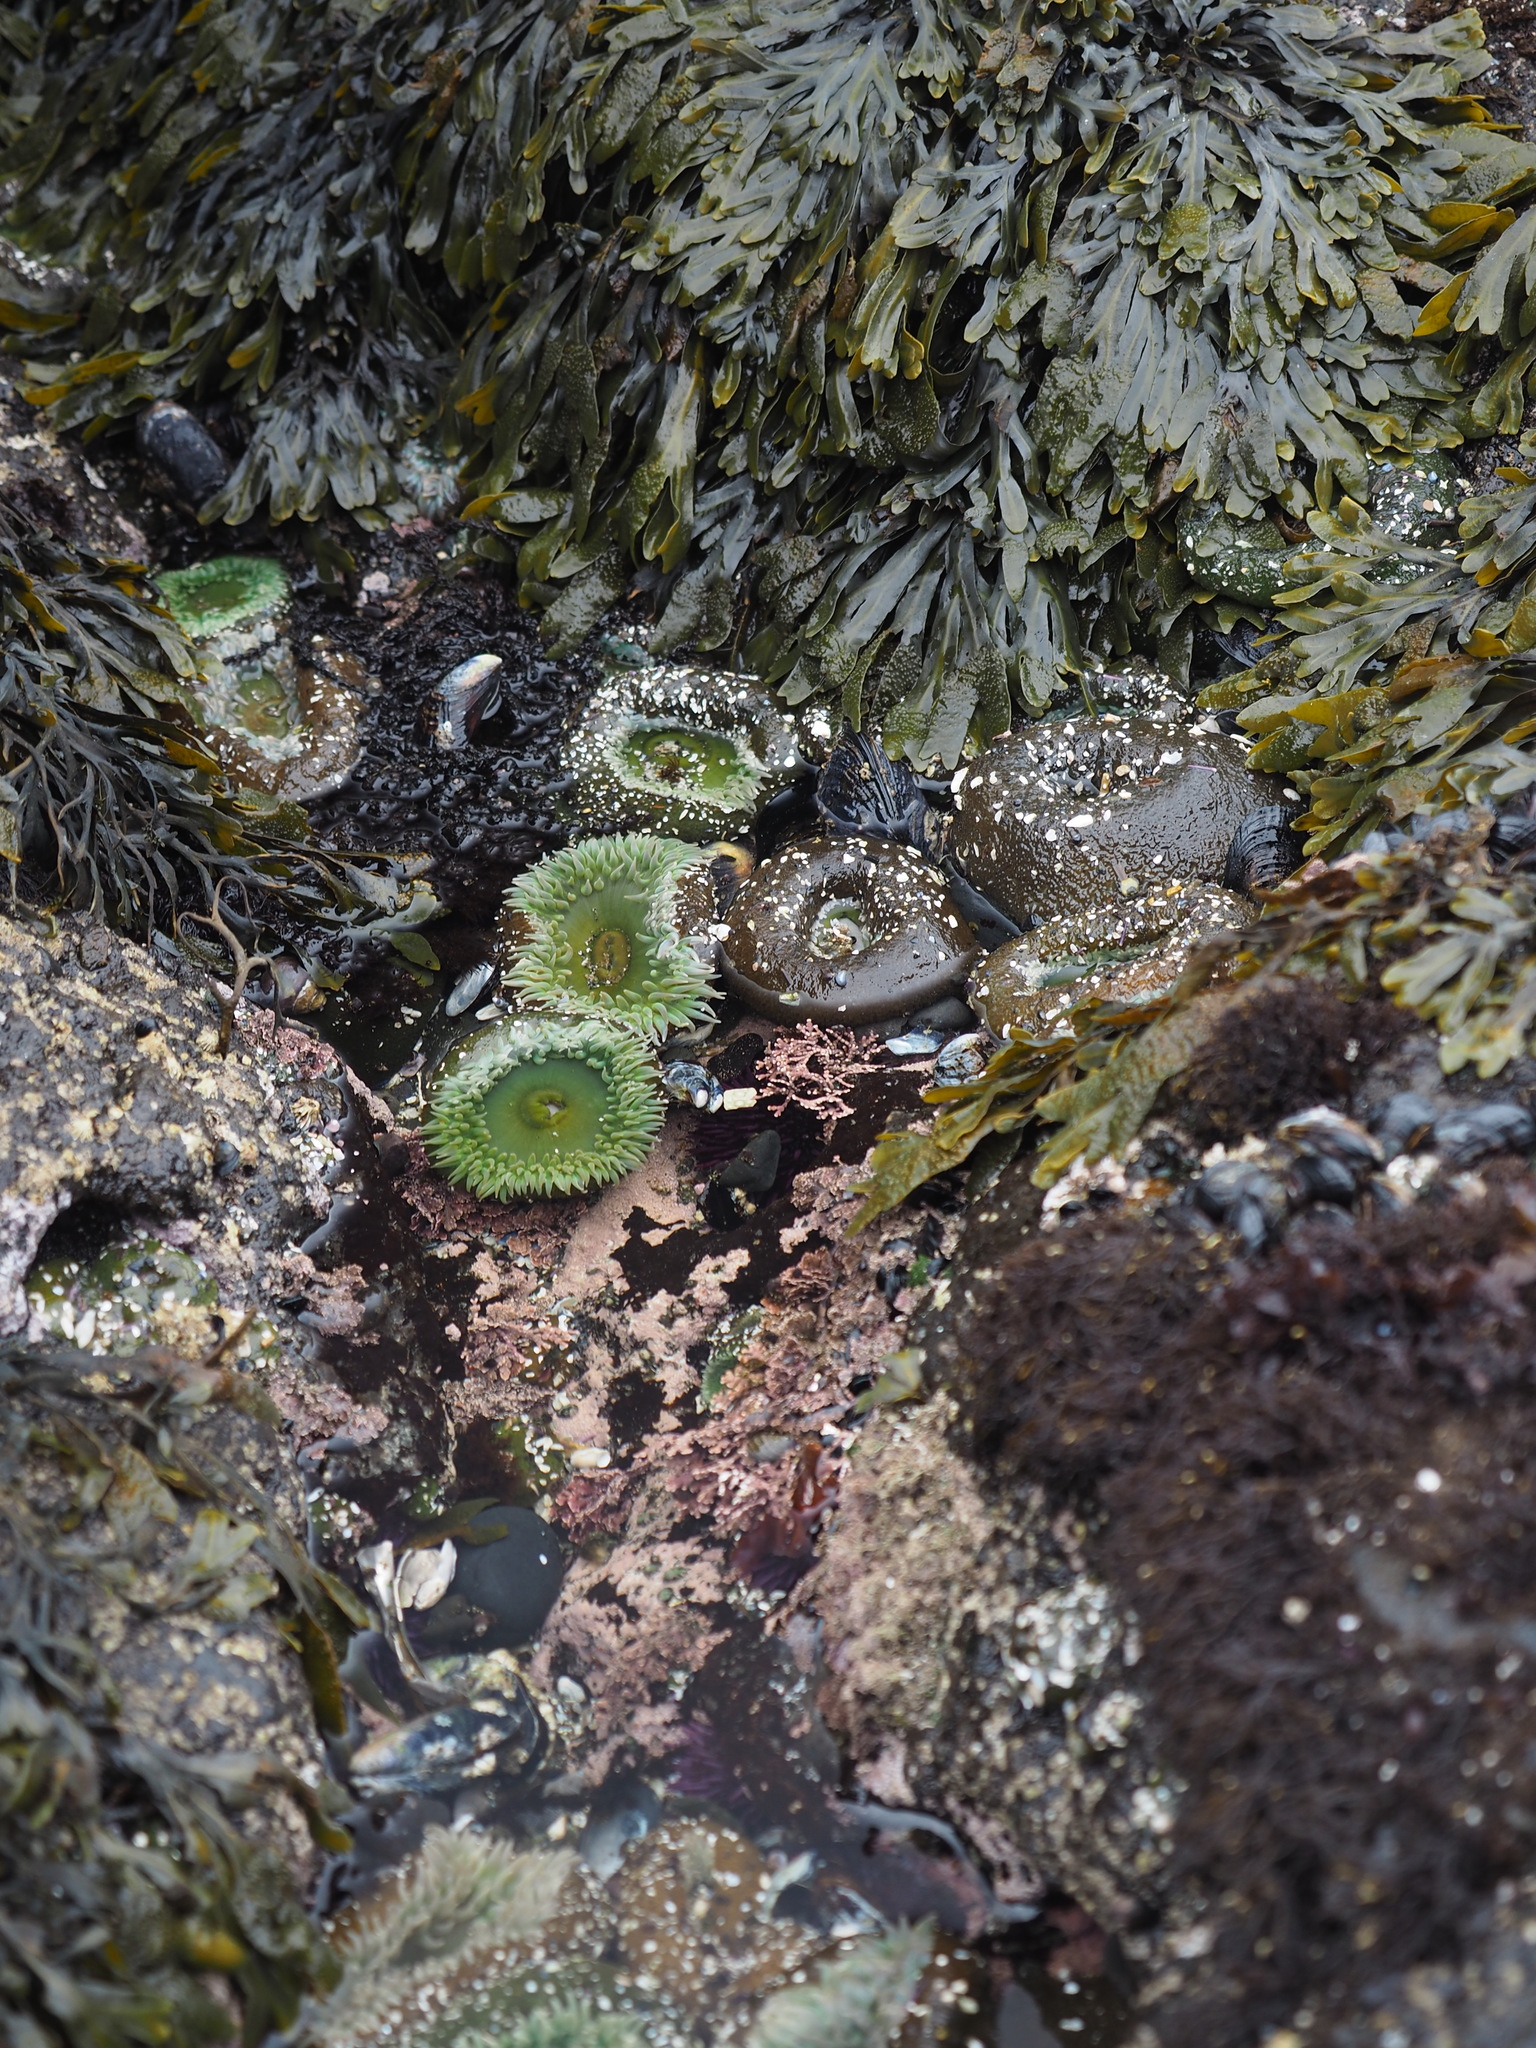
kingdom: Animalia
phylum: Cnidaria
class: Anthozoa
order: Actiniaria
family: Actiniidae
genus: Anthopleura
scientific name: Anthopleura xanthogrammica
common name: Giant green anemone
